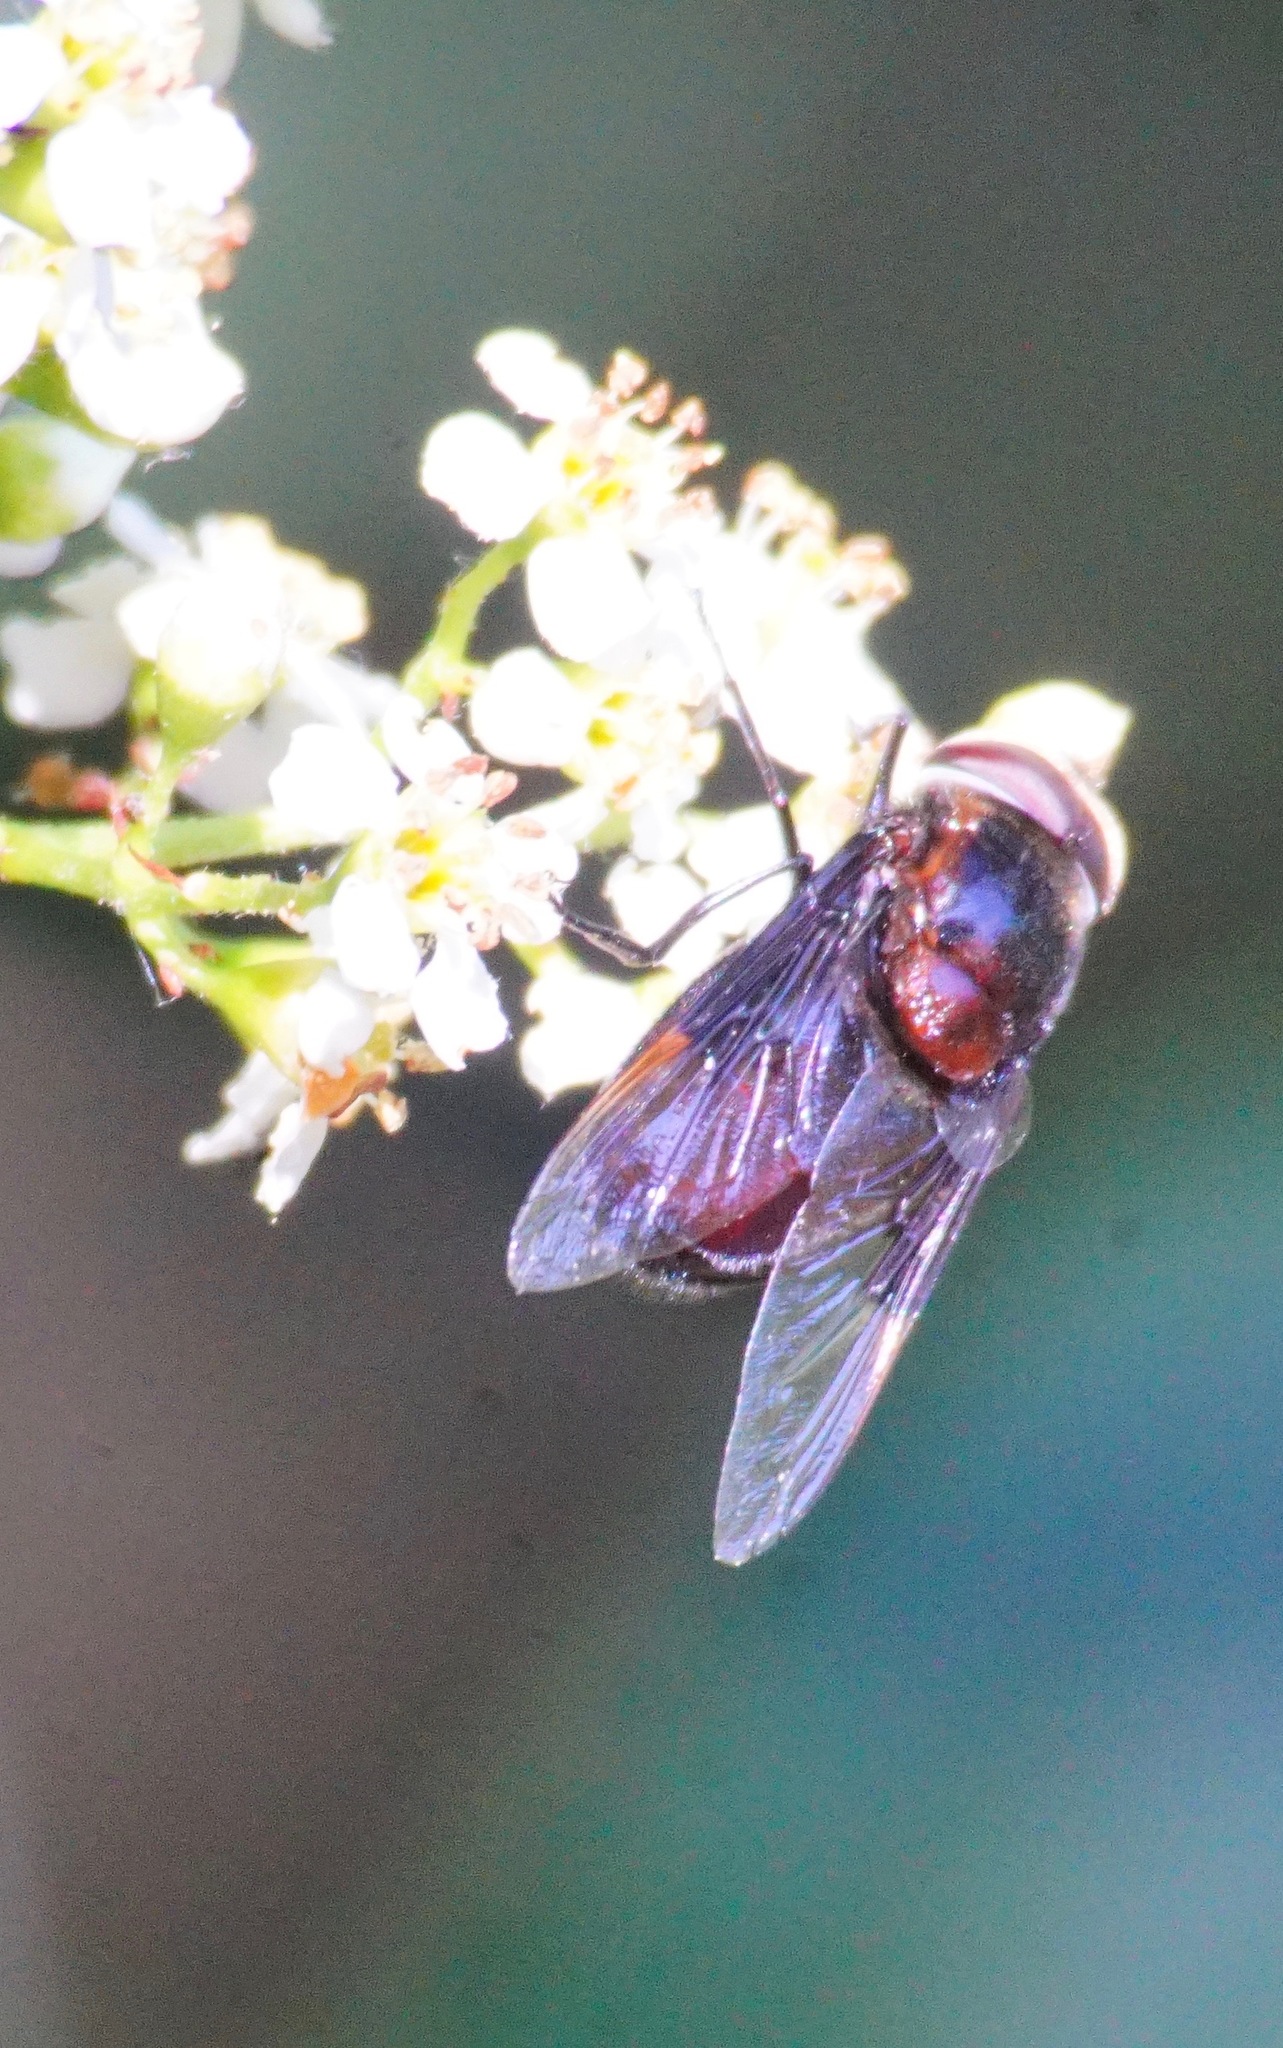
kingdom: Animalia
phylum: Arthropoda
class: Insecta
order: Diptera
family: Syrphidae
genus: Copestylum
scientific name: Copestylum violaceum
